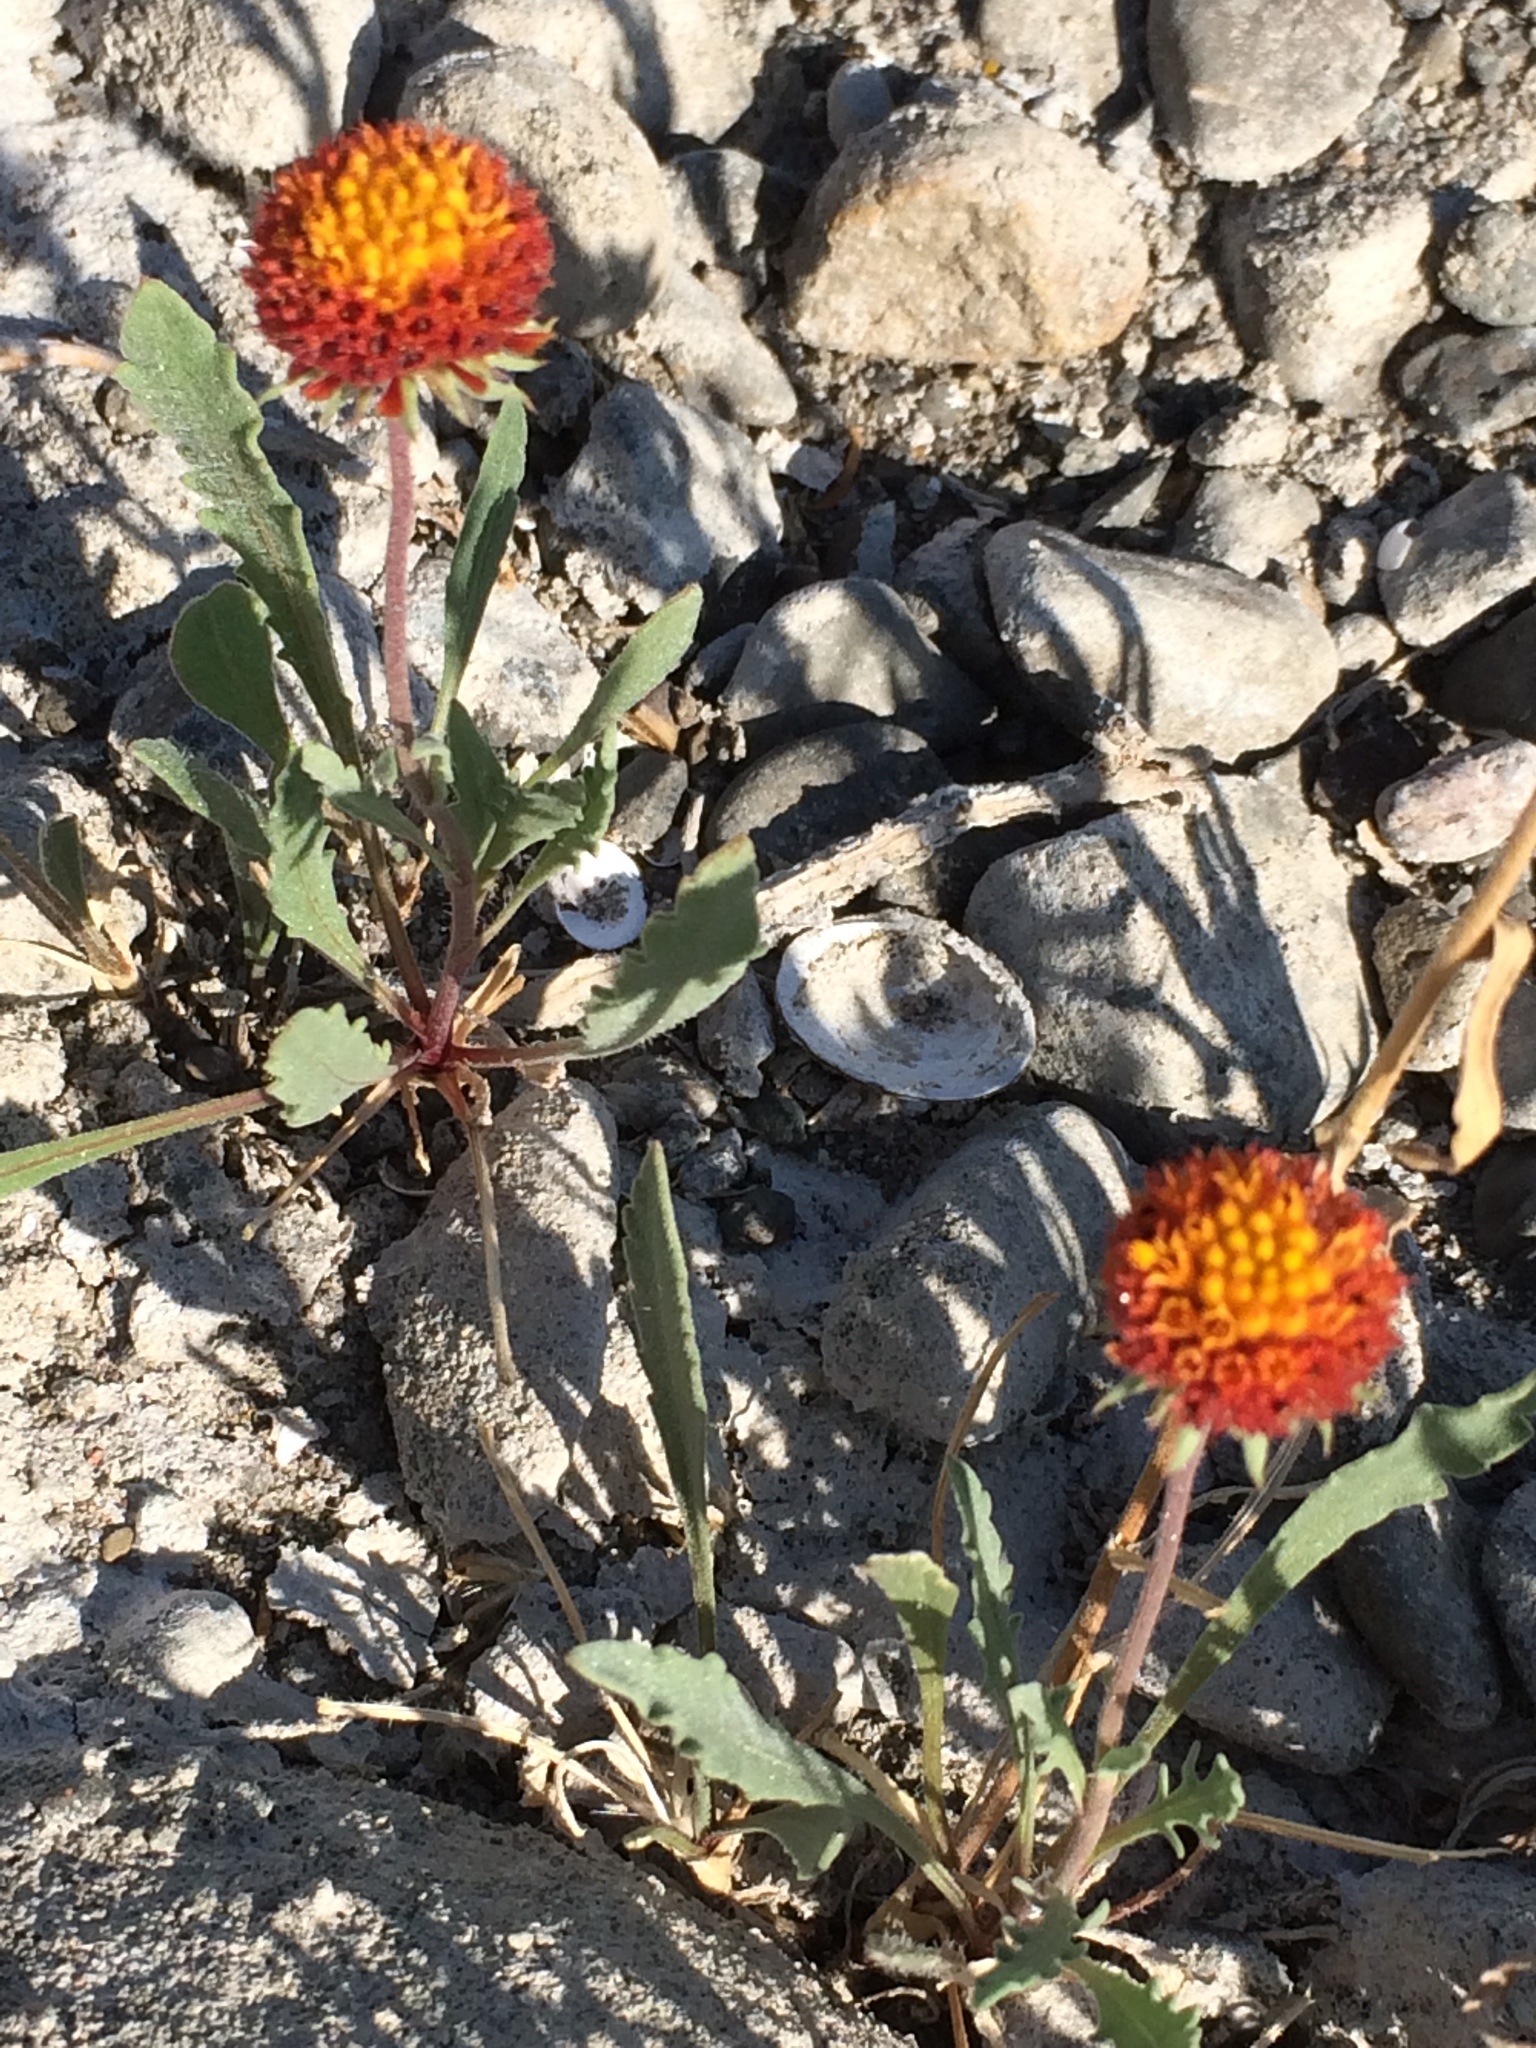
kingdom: Plantae
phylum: Tracheophyta
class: Magnoliopsida
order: Asterales
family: Asteraceae
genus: Gaillardia
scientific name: Gaillardia aristata
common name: Blanket-flower
